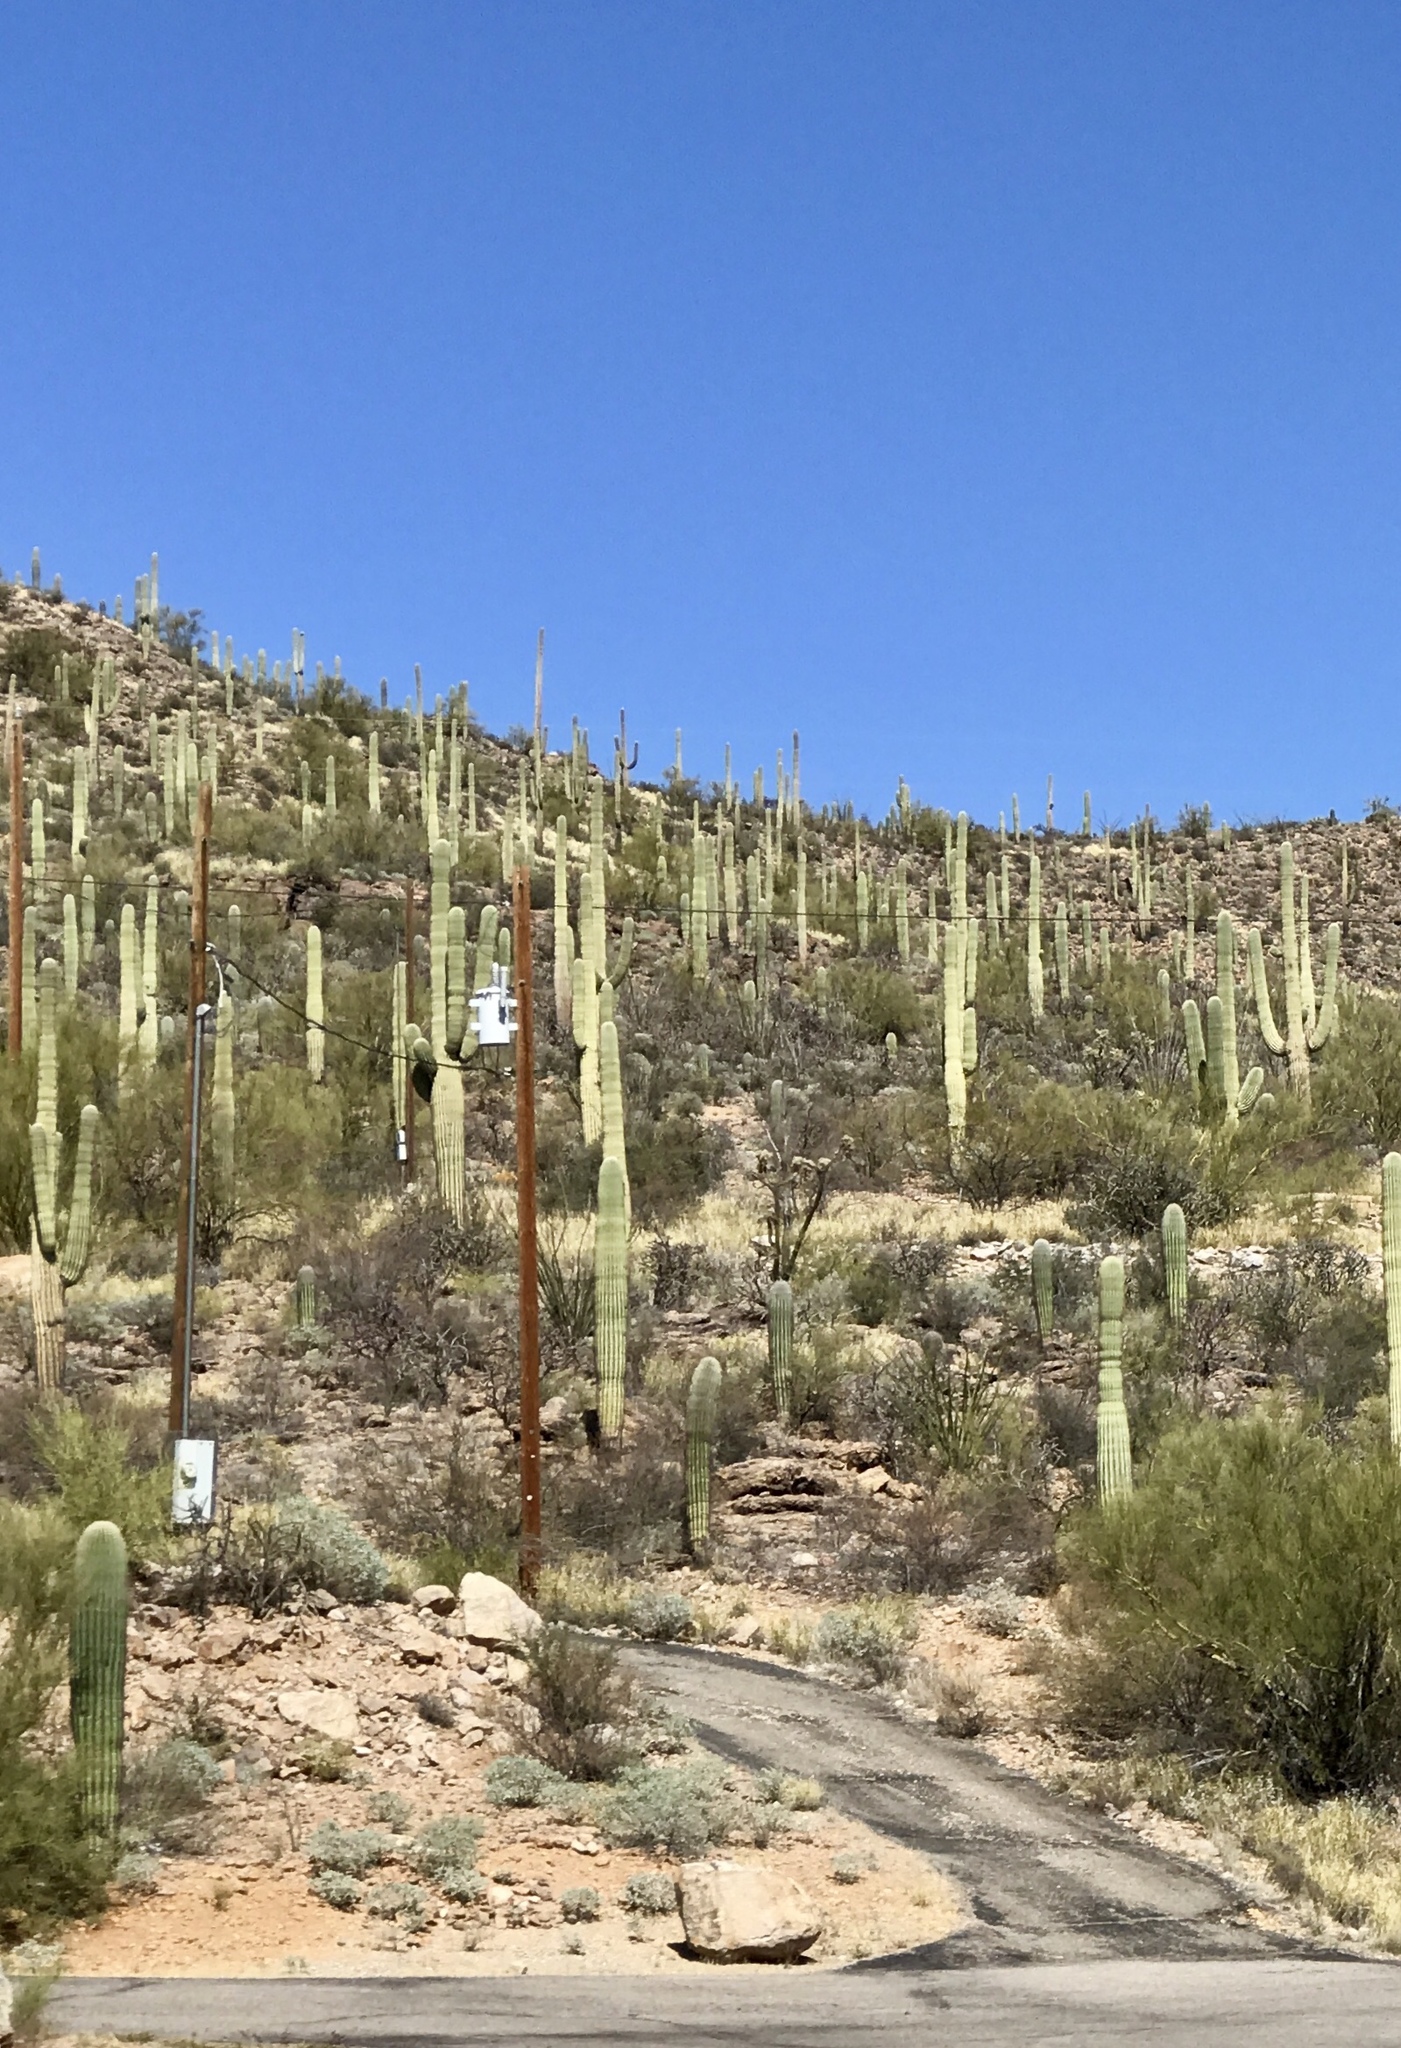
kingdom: Plantae
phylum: Tracheophyta
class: Magnoliopsida
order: Caryophyllales
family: Cactaceae
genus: Carnegiea
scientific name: Carnegiea gigantea
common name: Saguaro
